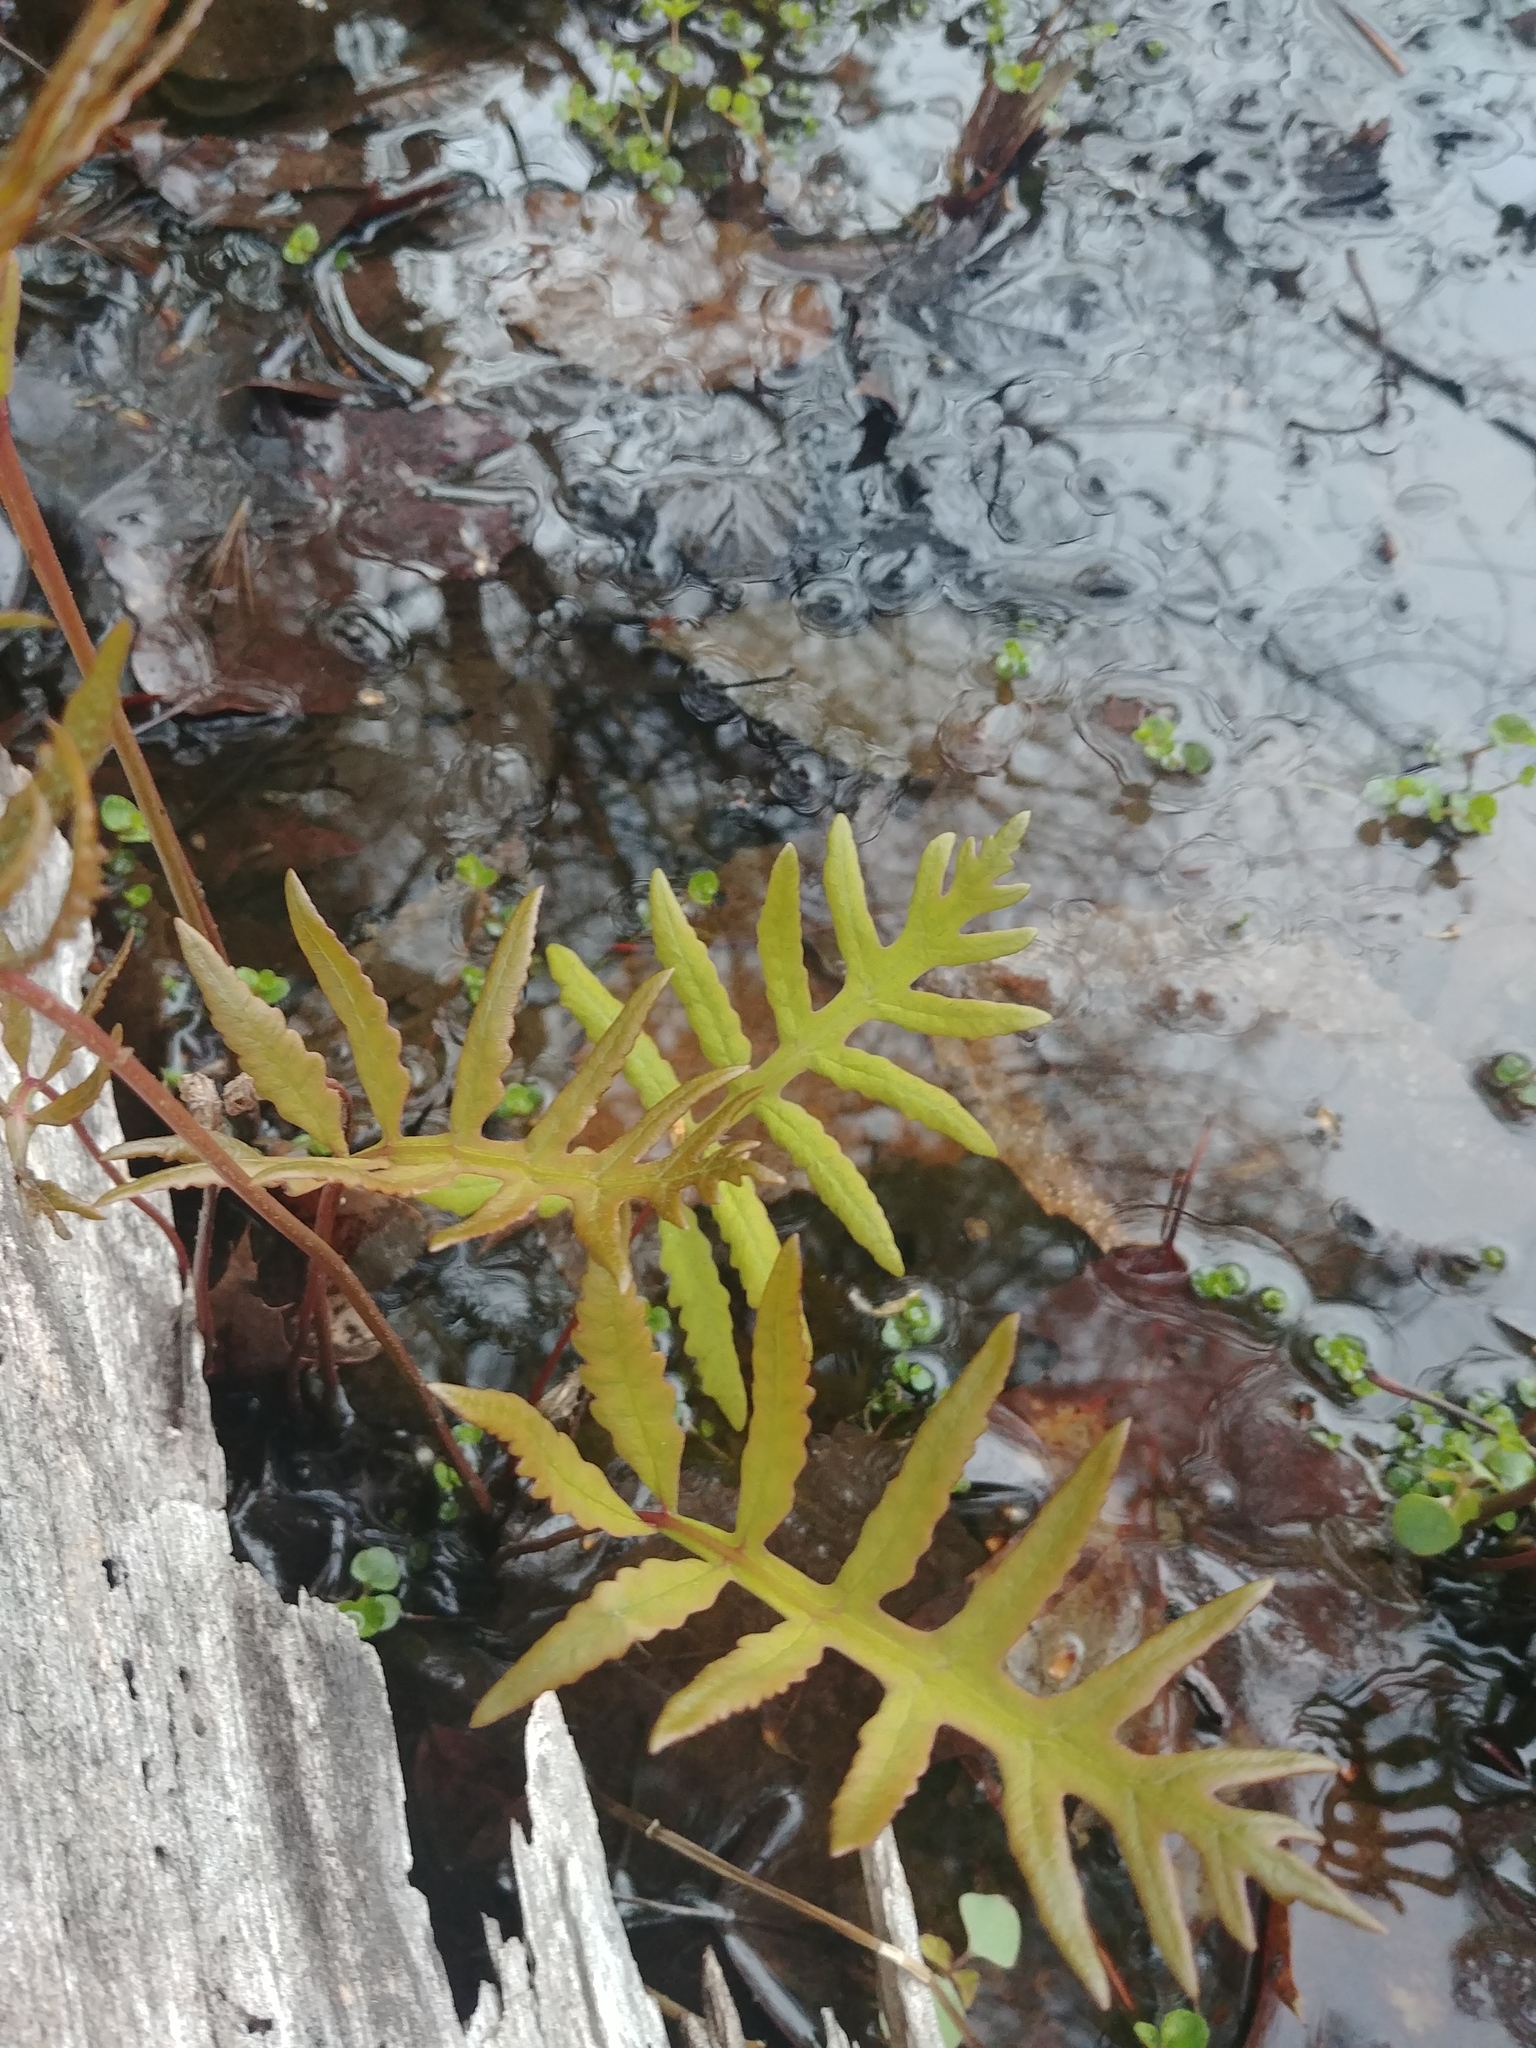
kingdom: Plantae
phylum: Tracheophyta
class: Polypodiopsida
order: Polypodiales
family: Onocleaceae
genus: Onoclea
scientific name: Onoclea sensibilis
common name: Sensitive fern
